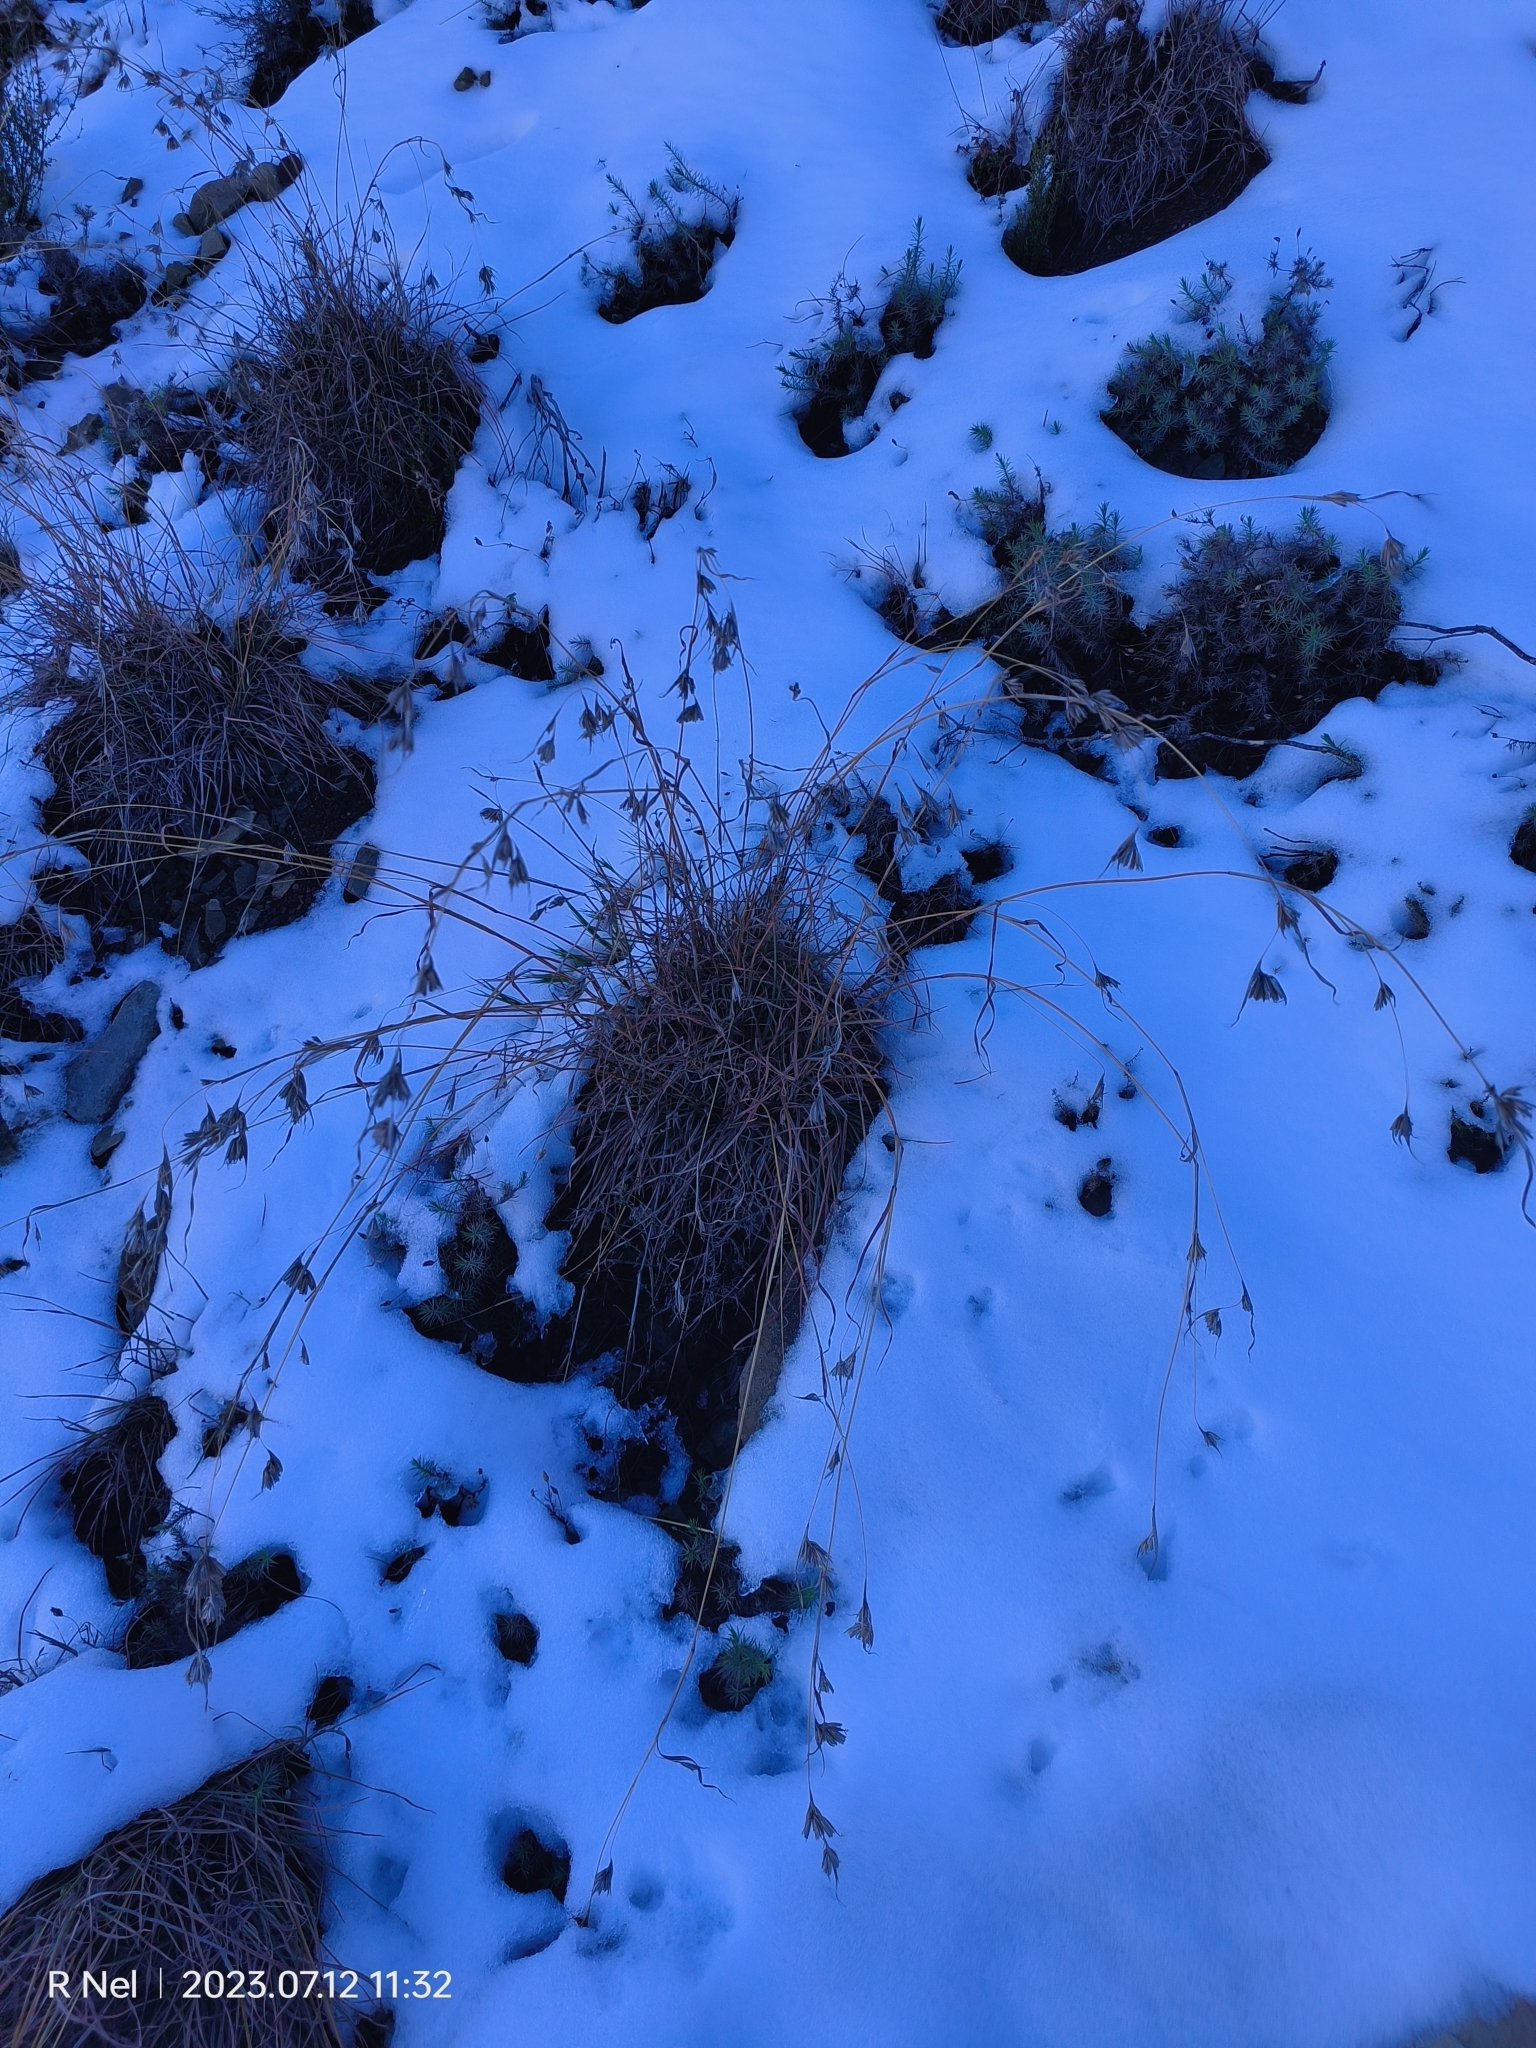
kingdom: Plantae
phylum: Tracheophyta
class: Liliopsida
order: Poales
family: Poaceae
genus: Themeda
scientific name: Themeda triandra
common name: Kangaroo grass
